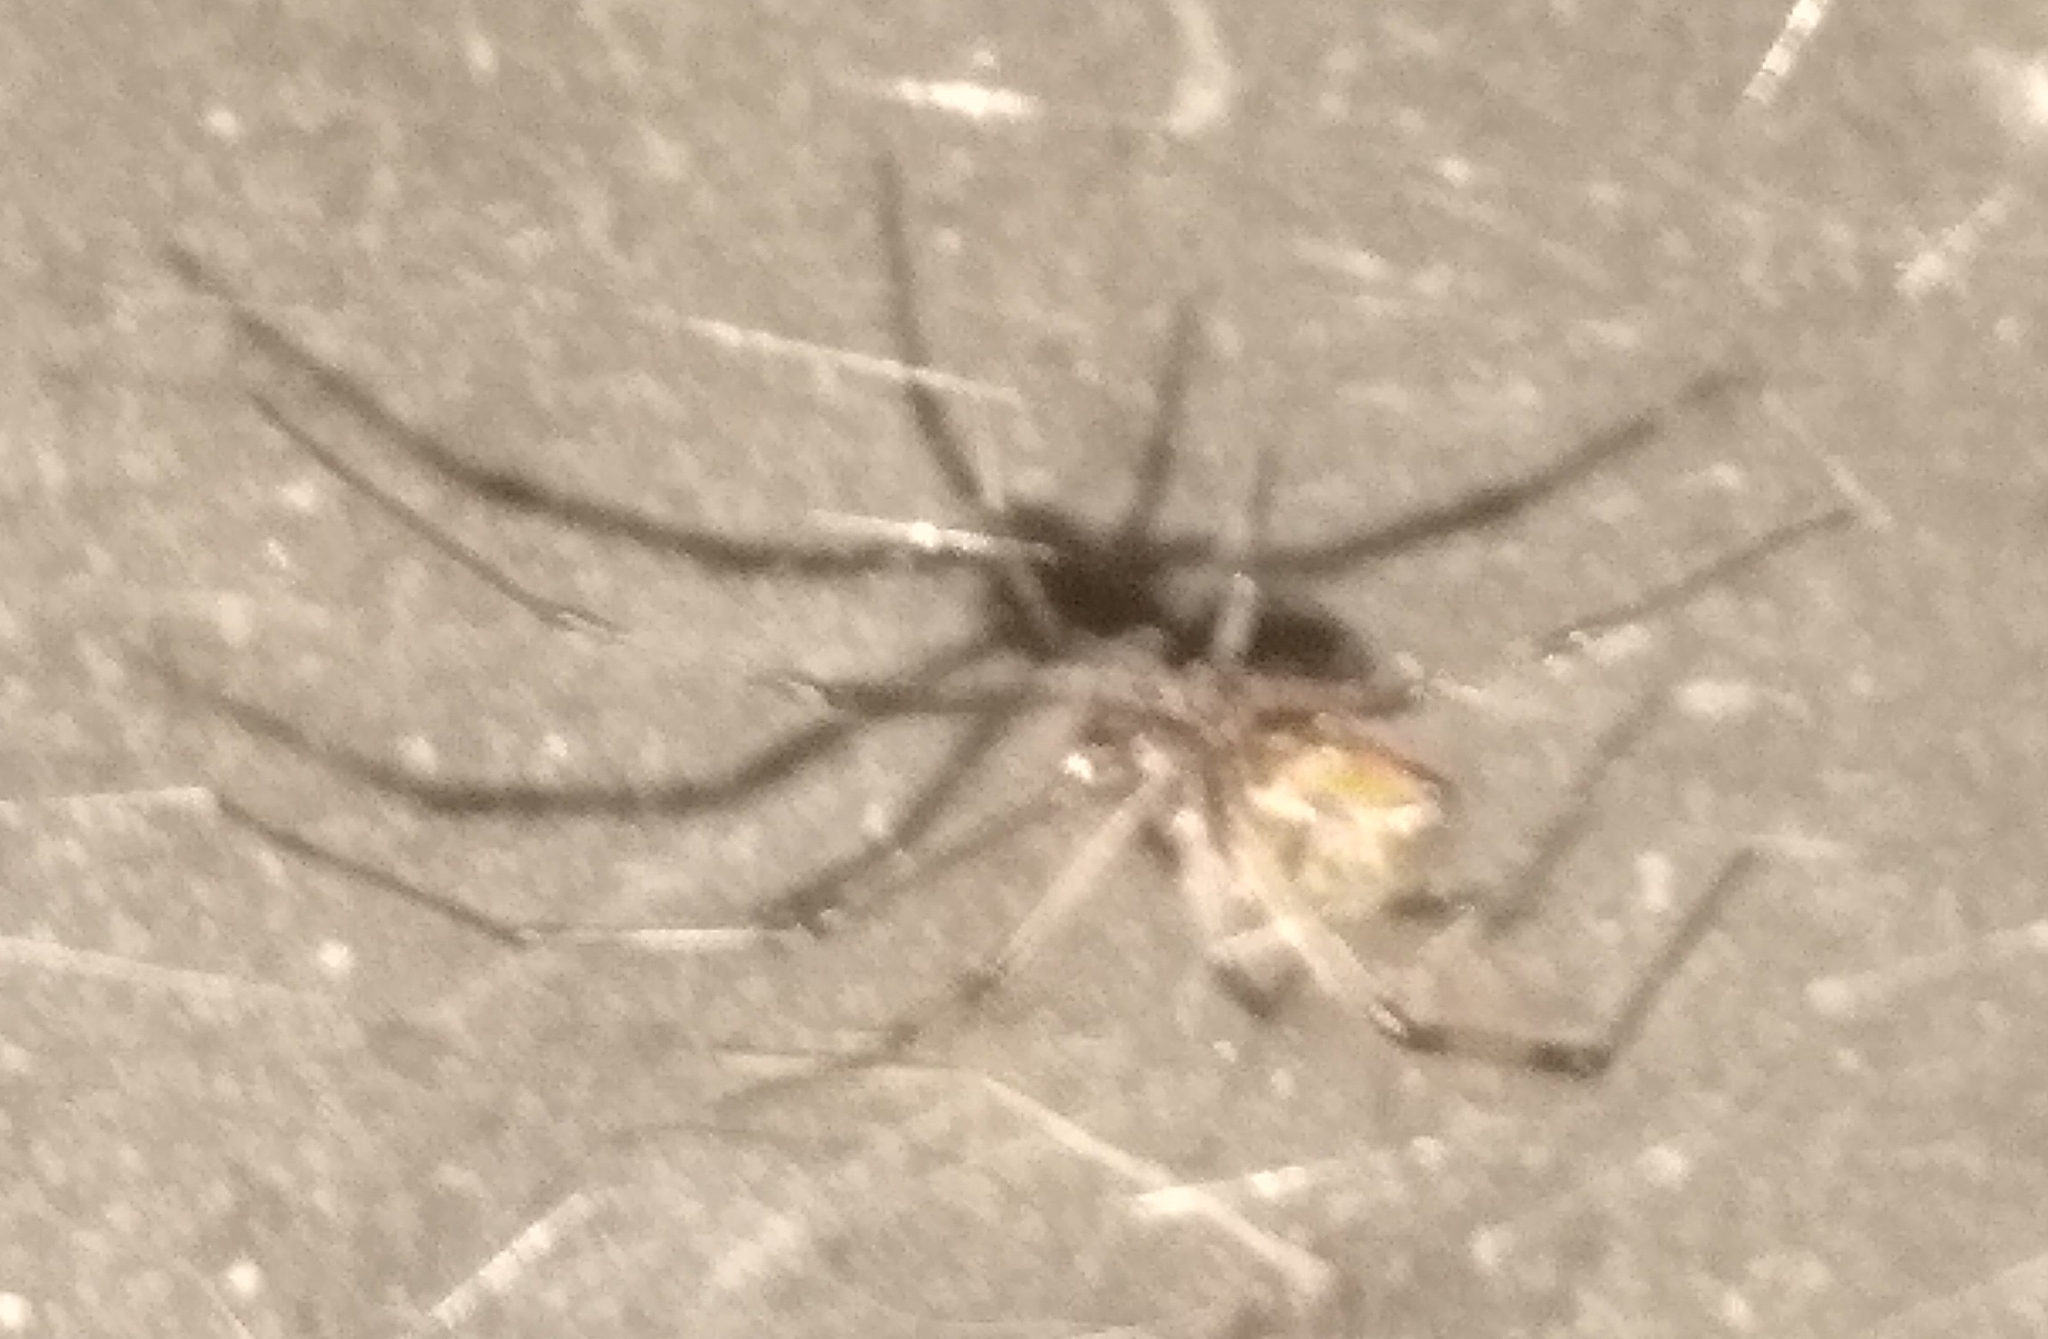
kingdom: Animalia
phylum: Arthropoda
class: Arachnida
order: Araneae
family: Theridiidae
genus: Latrodectus
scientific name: Latrodectus geometricus
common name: Brown widow spider
